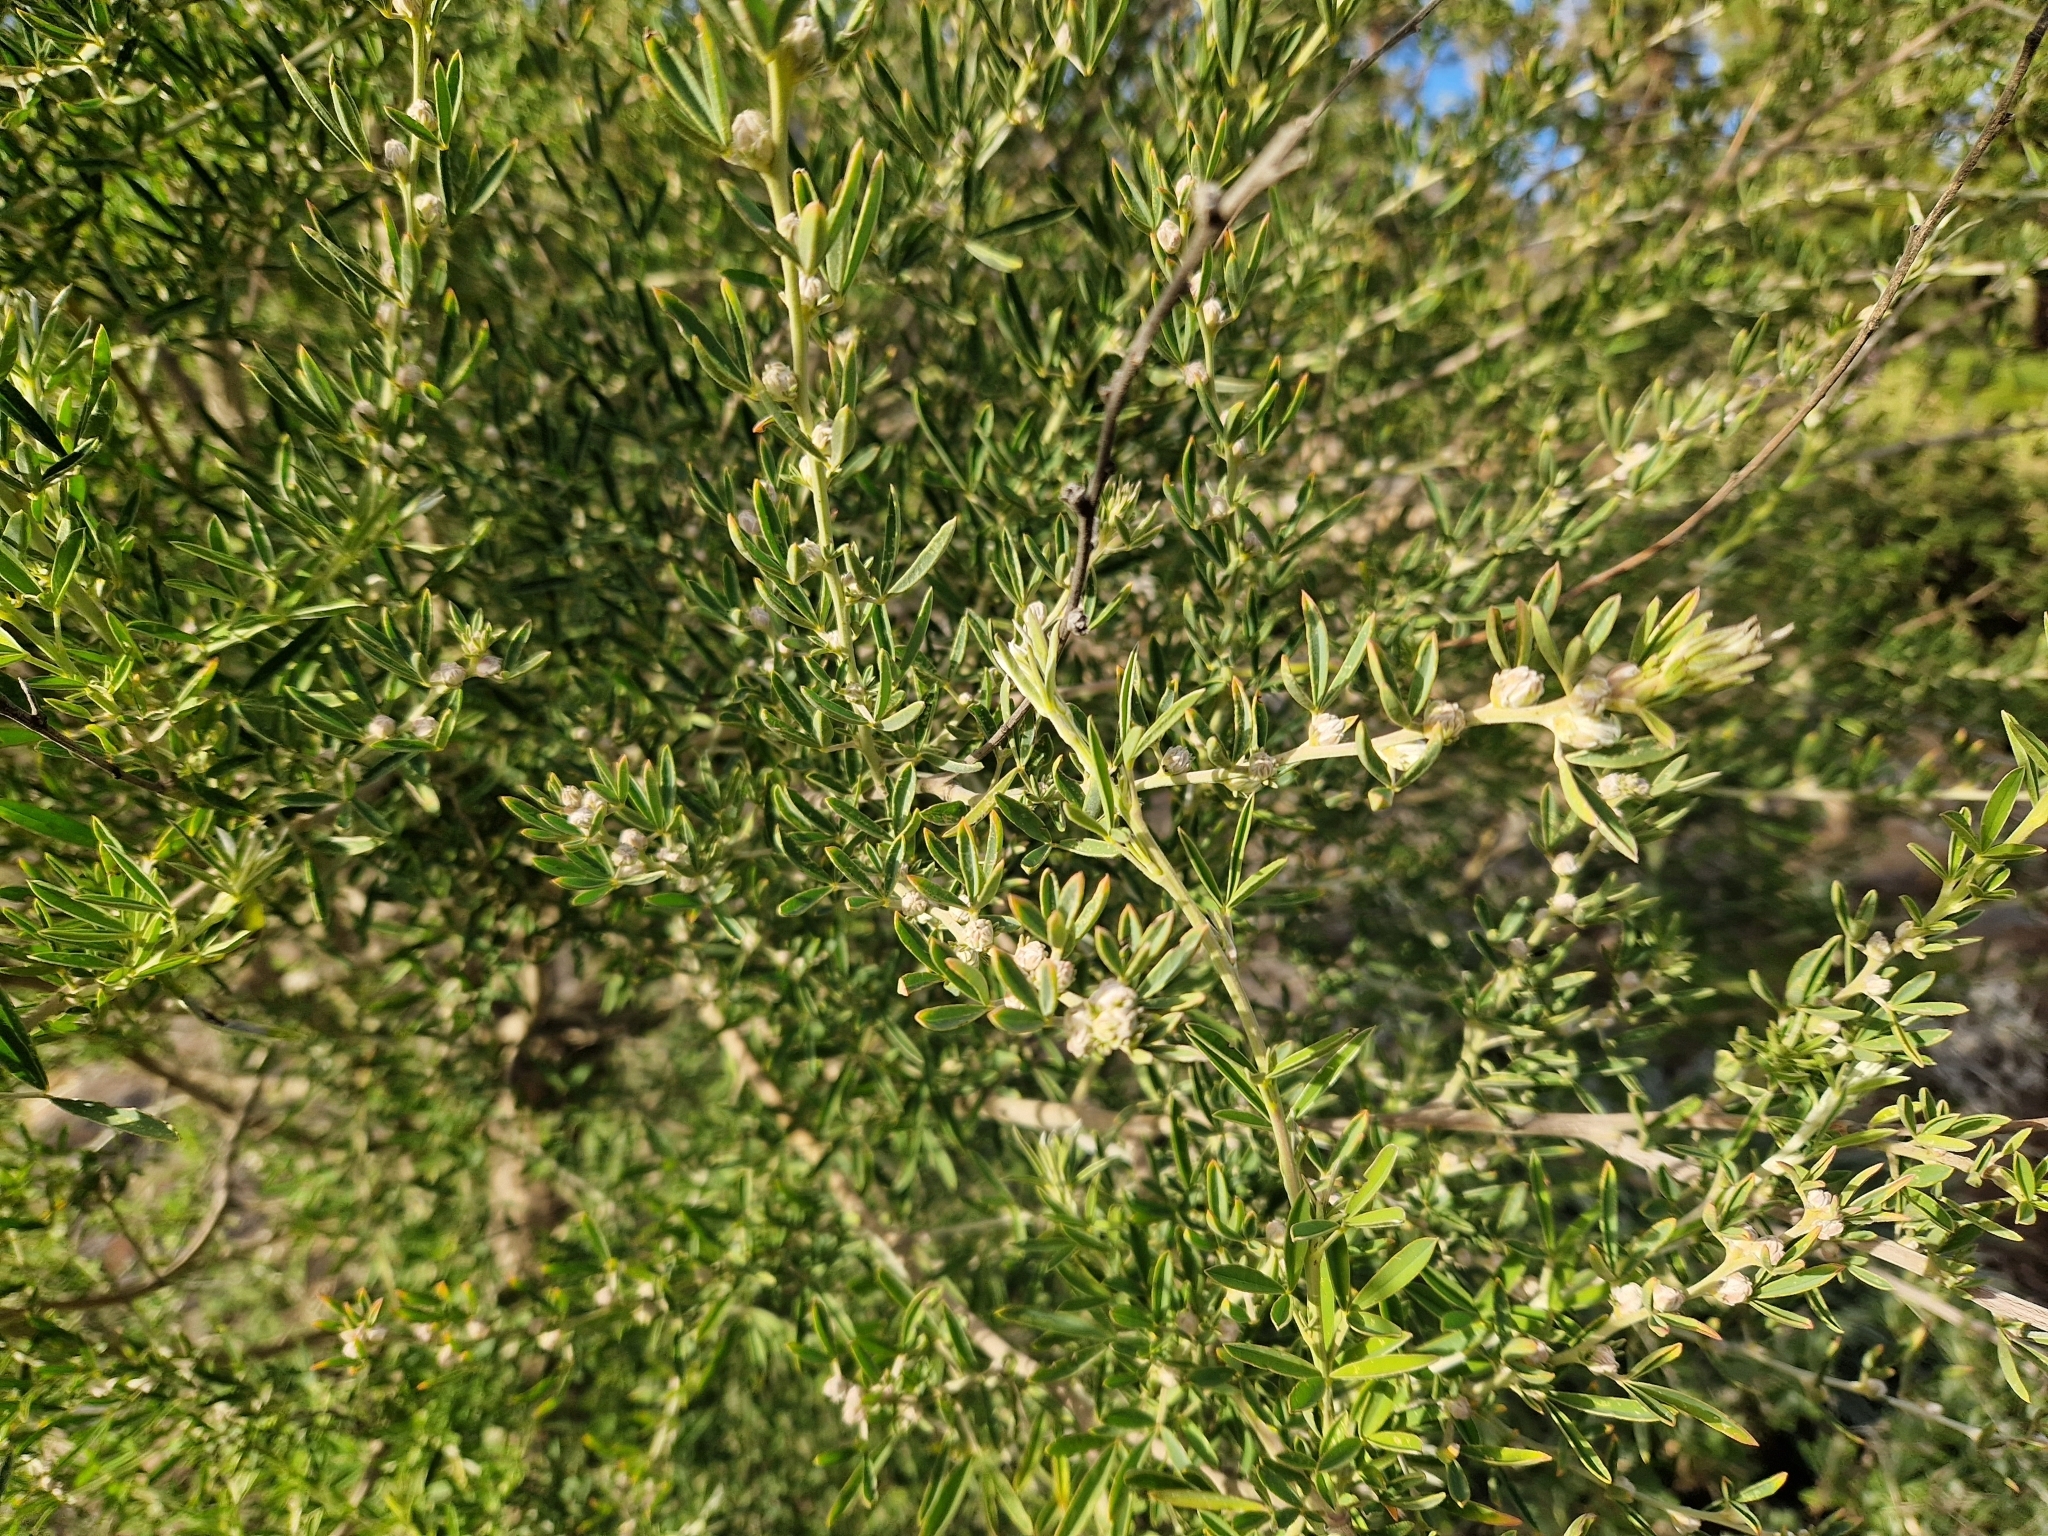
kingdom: Plantae
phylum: Tracheophyta
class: Magnoliopsida
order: Fabales
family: Fabaceae
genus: Chamaecytisus
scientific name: Chamaecytisus prolifer
